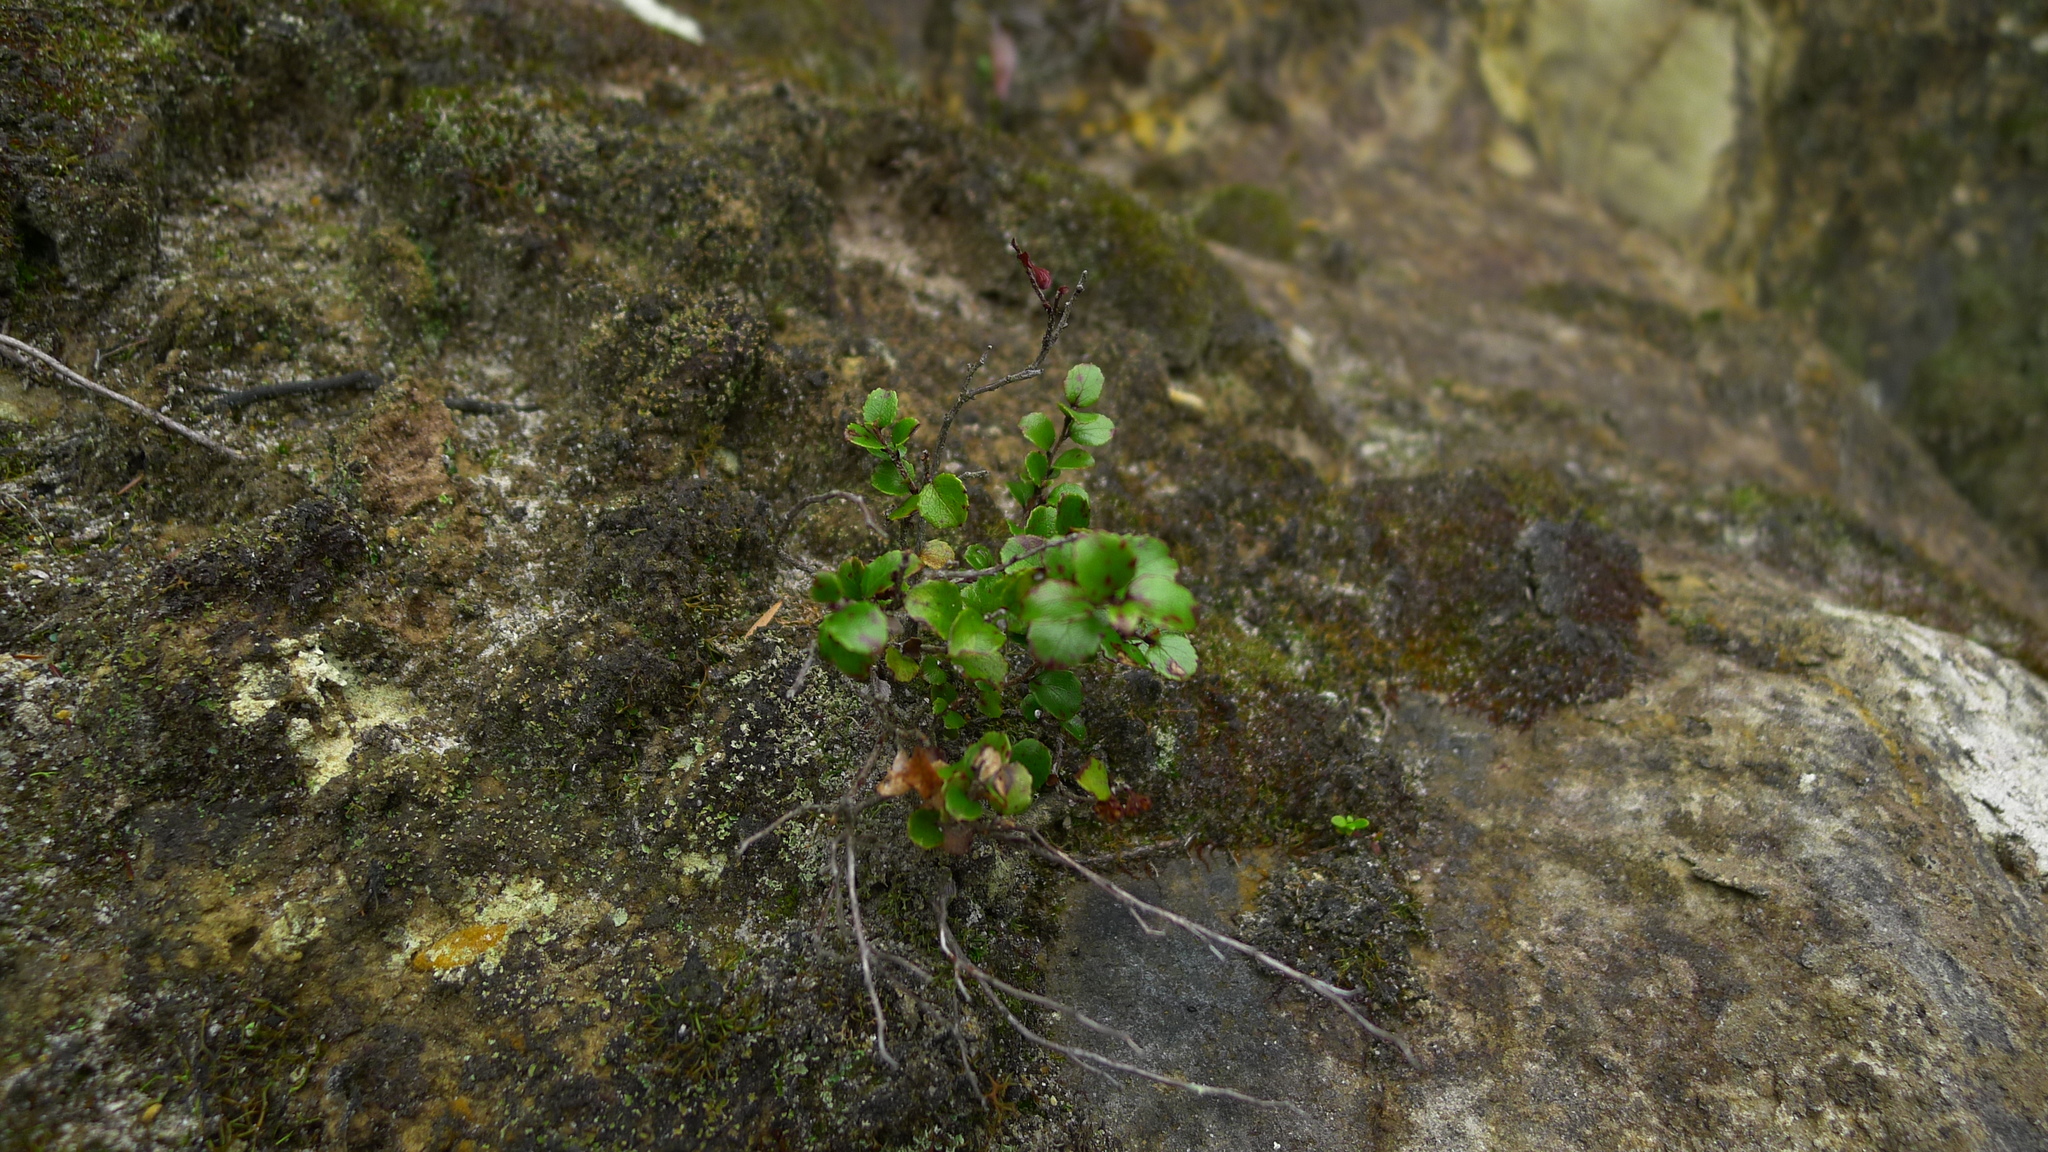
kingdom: Plantae
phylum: Tracheophyta
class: Magnoliopsida
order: Ericales
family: Ericaceae
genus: Gaultheria
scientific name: Gaultheria antipoda
